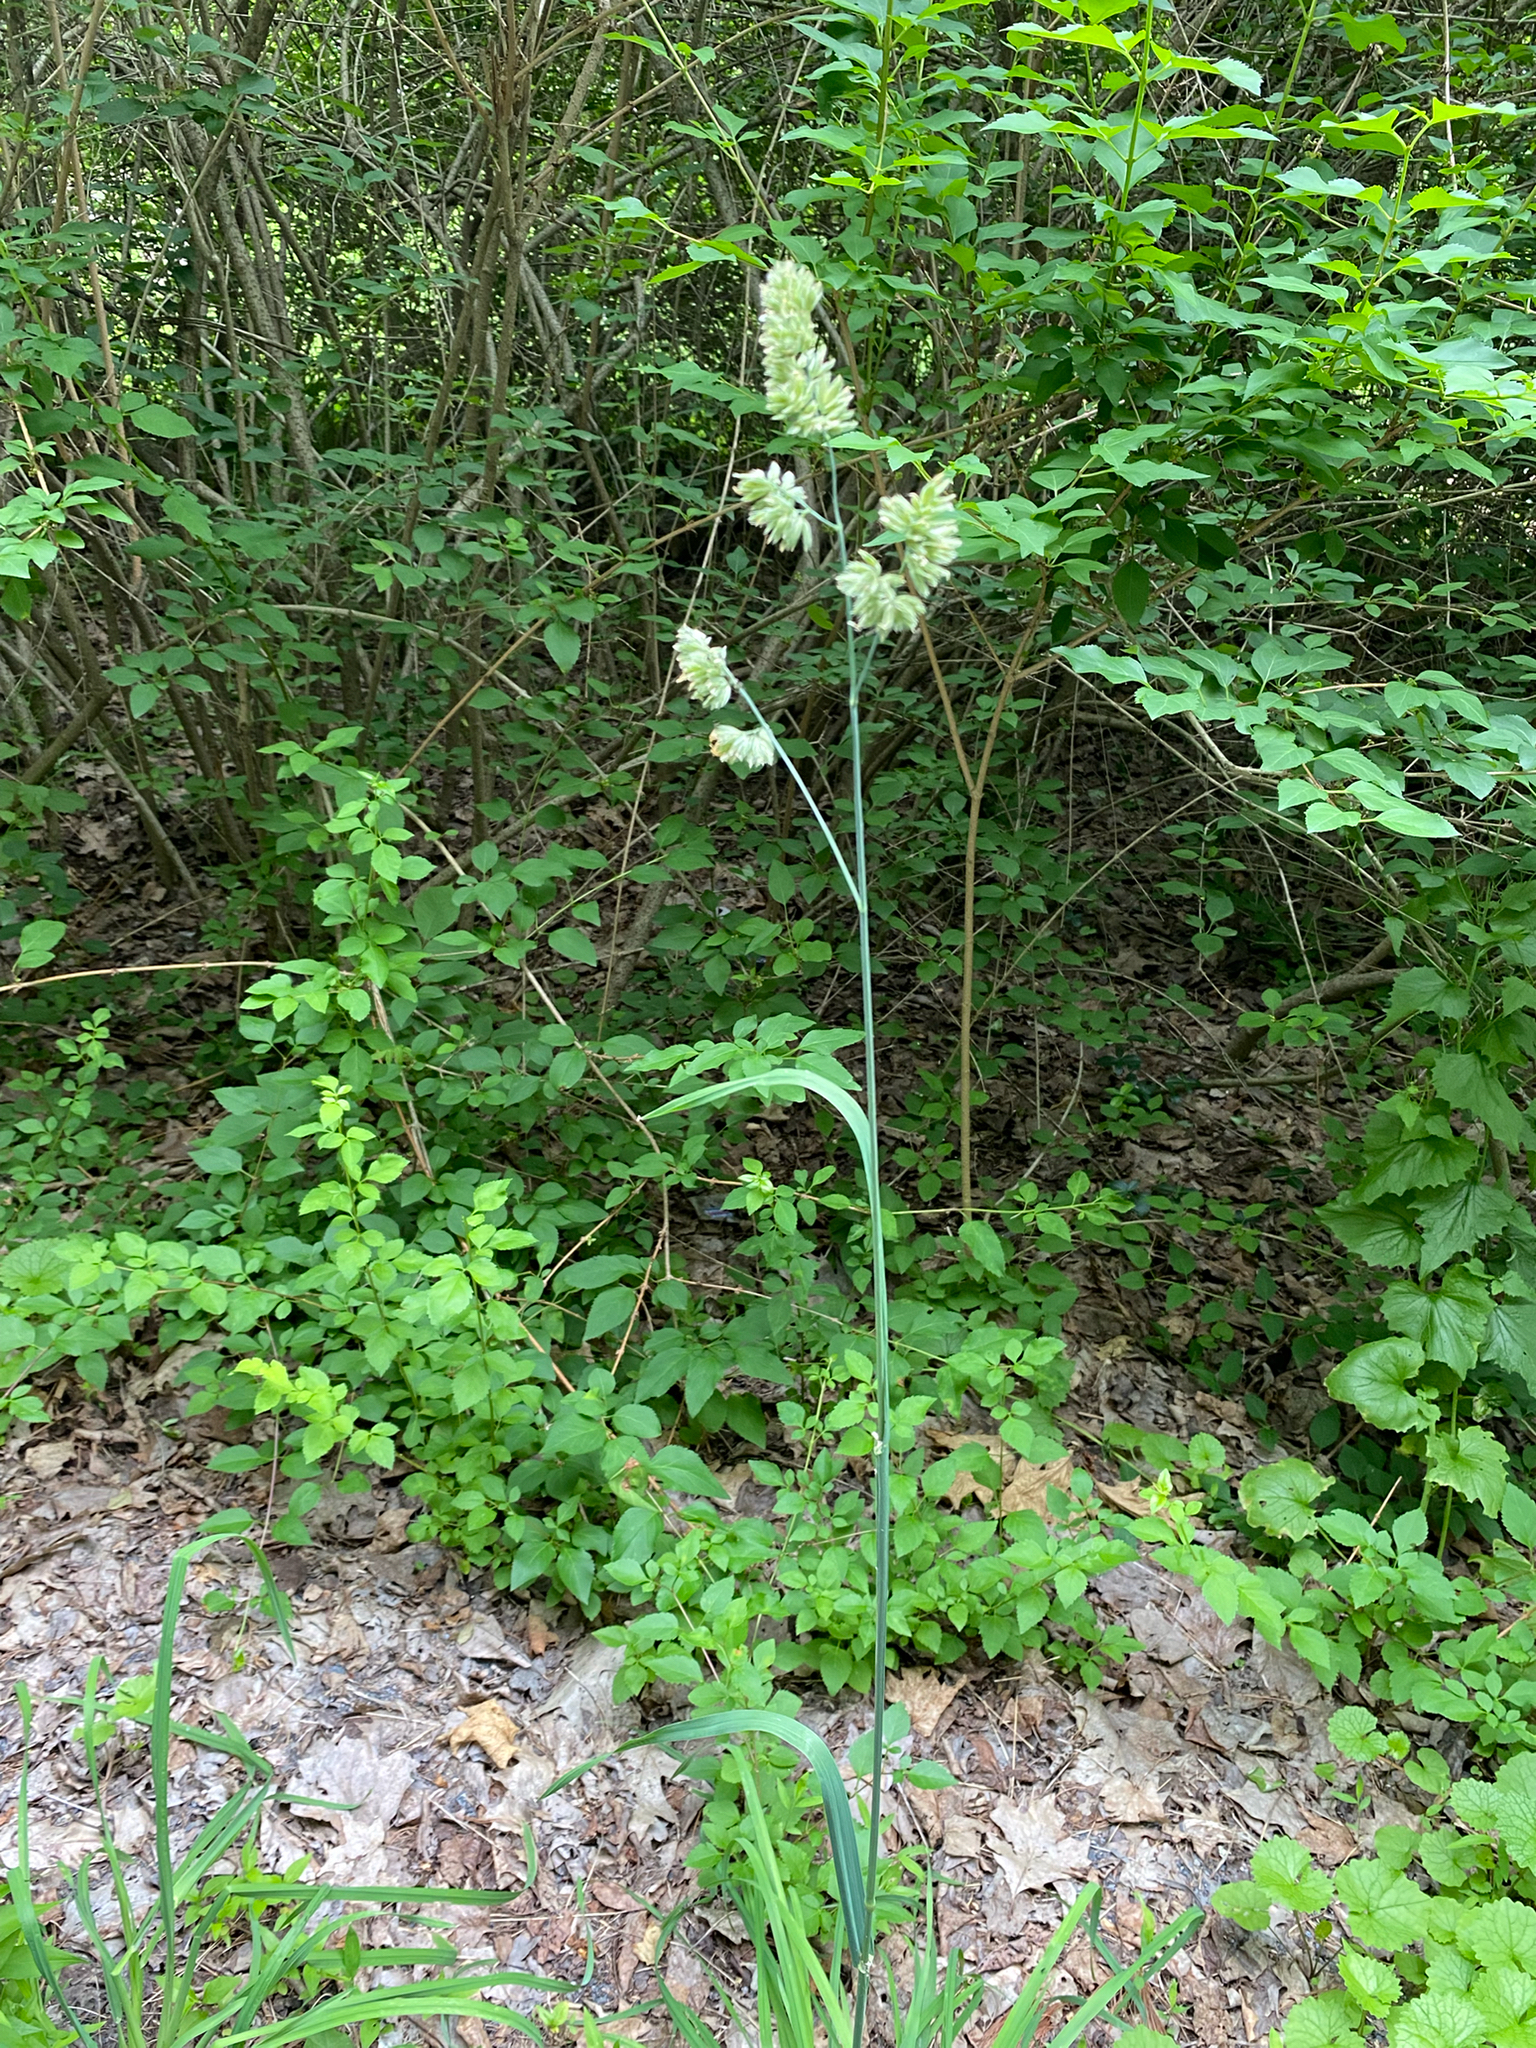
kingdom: Plantae
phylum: Tracheophyta
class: Liliopsida
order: Poales
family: Poaceae
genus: Dactylis
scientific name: Dactylis glomerata
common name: Orchardgrass
